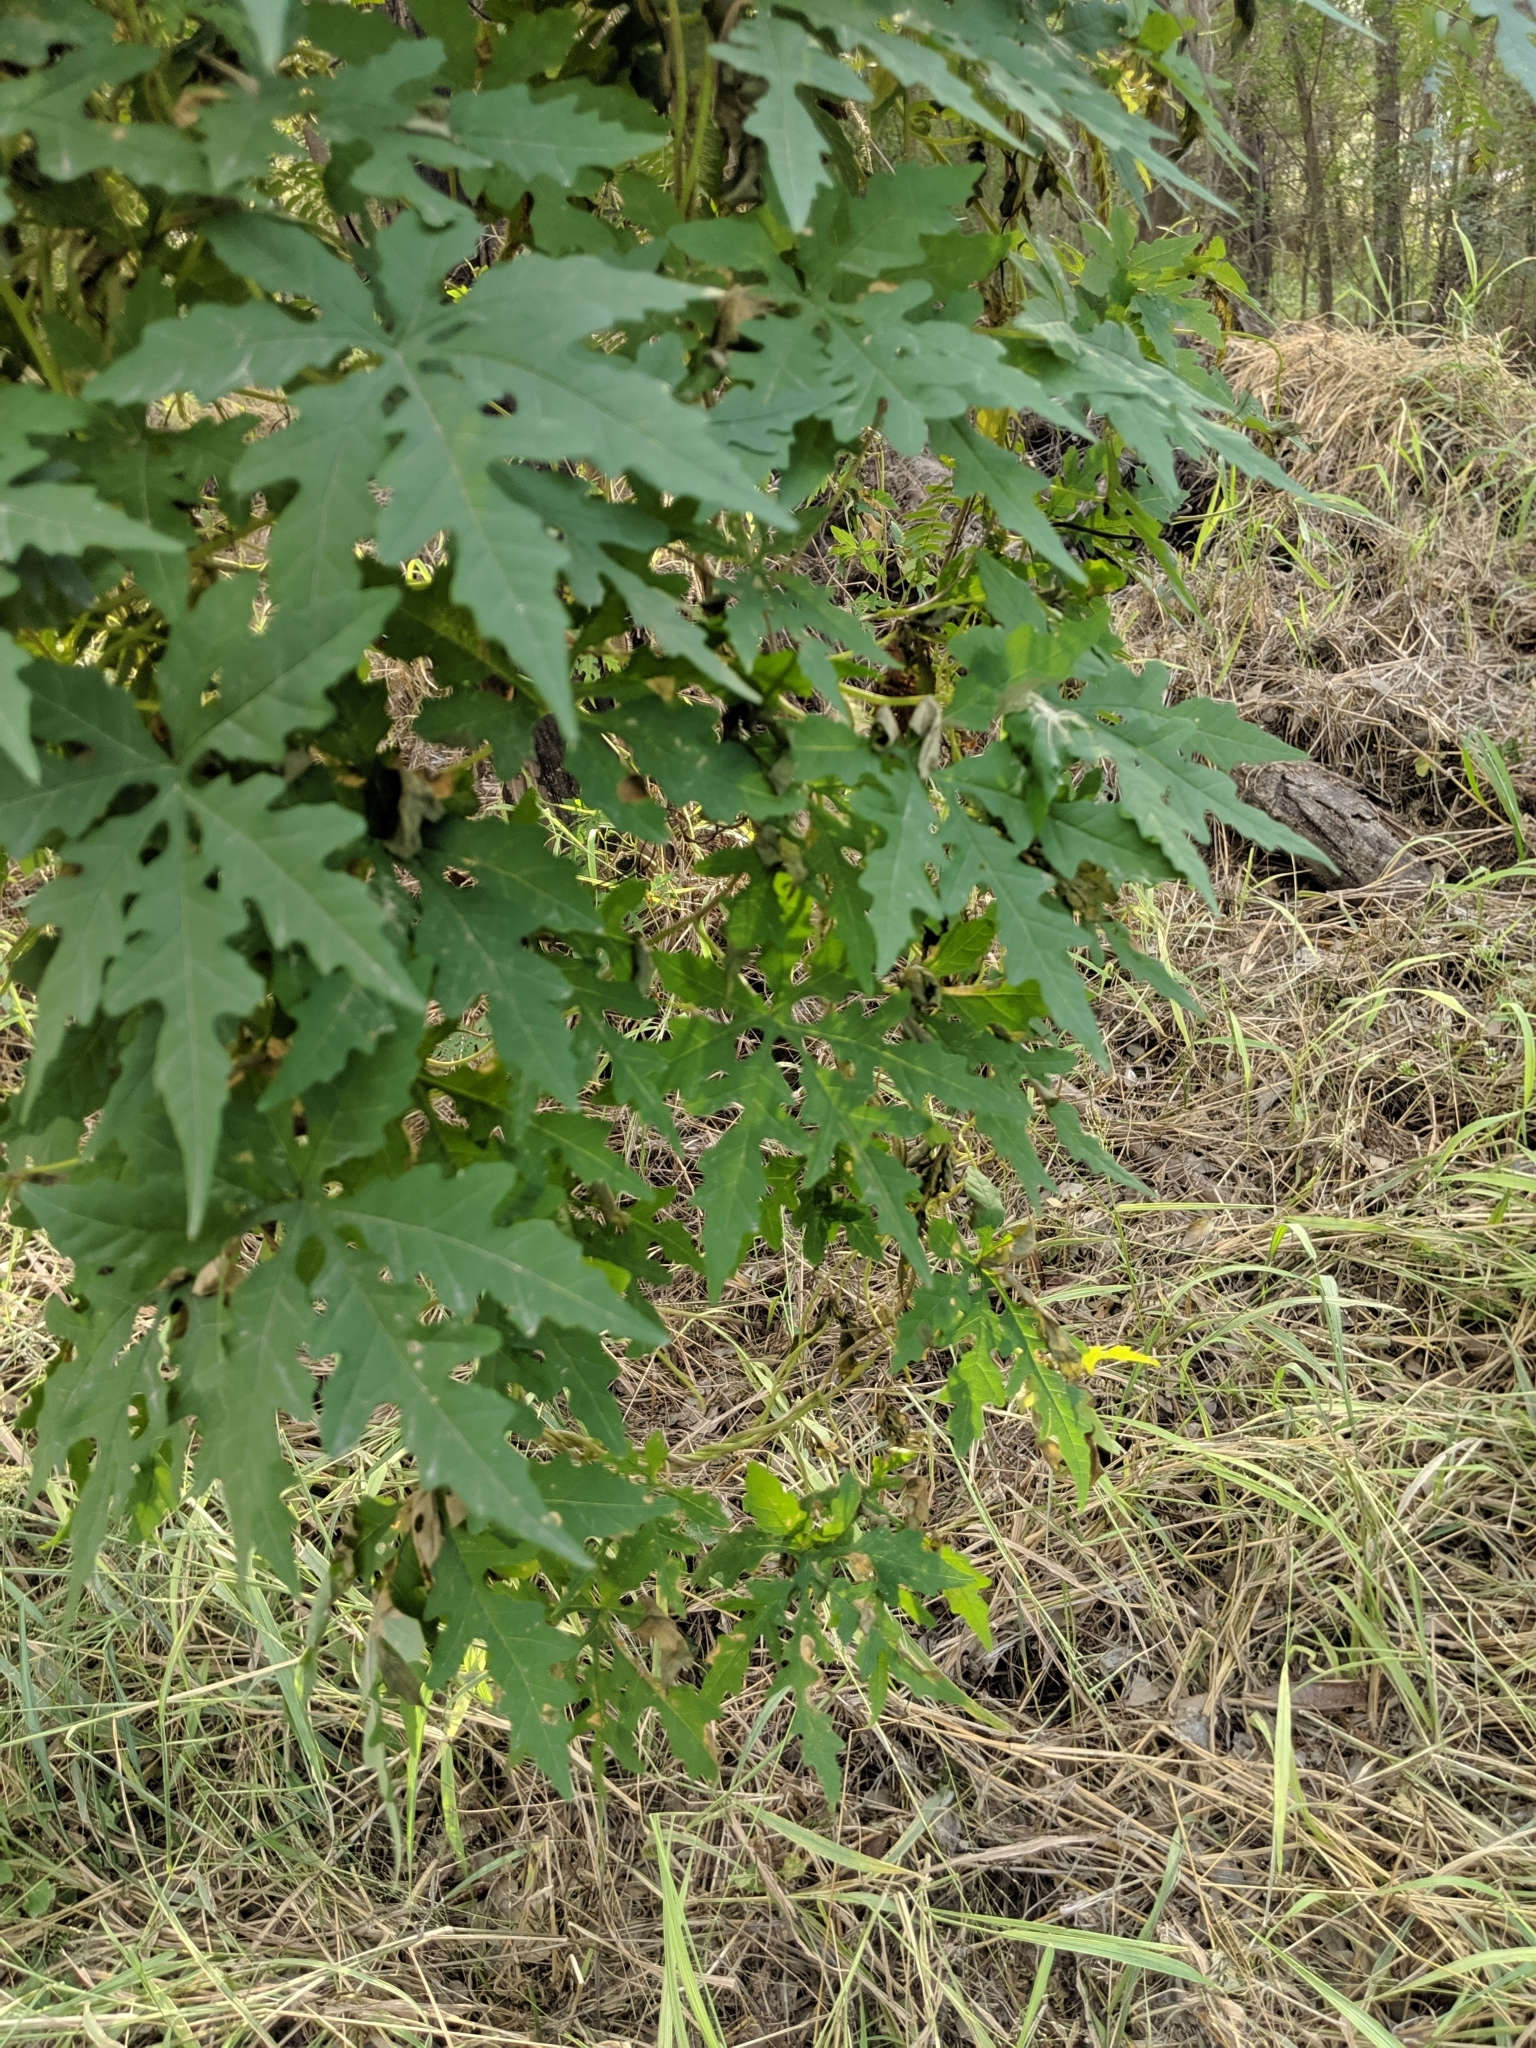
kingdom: Plantae
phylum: Tracheophyta
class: Magnoliopsida
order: Solanales
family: Convolvulaceae
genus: Distimake
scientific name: Distimake dissectus
